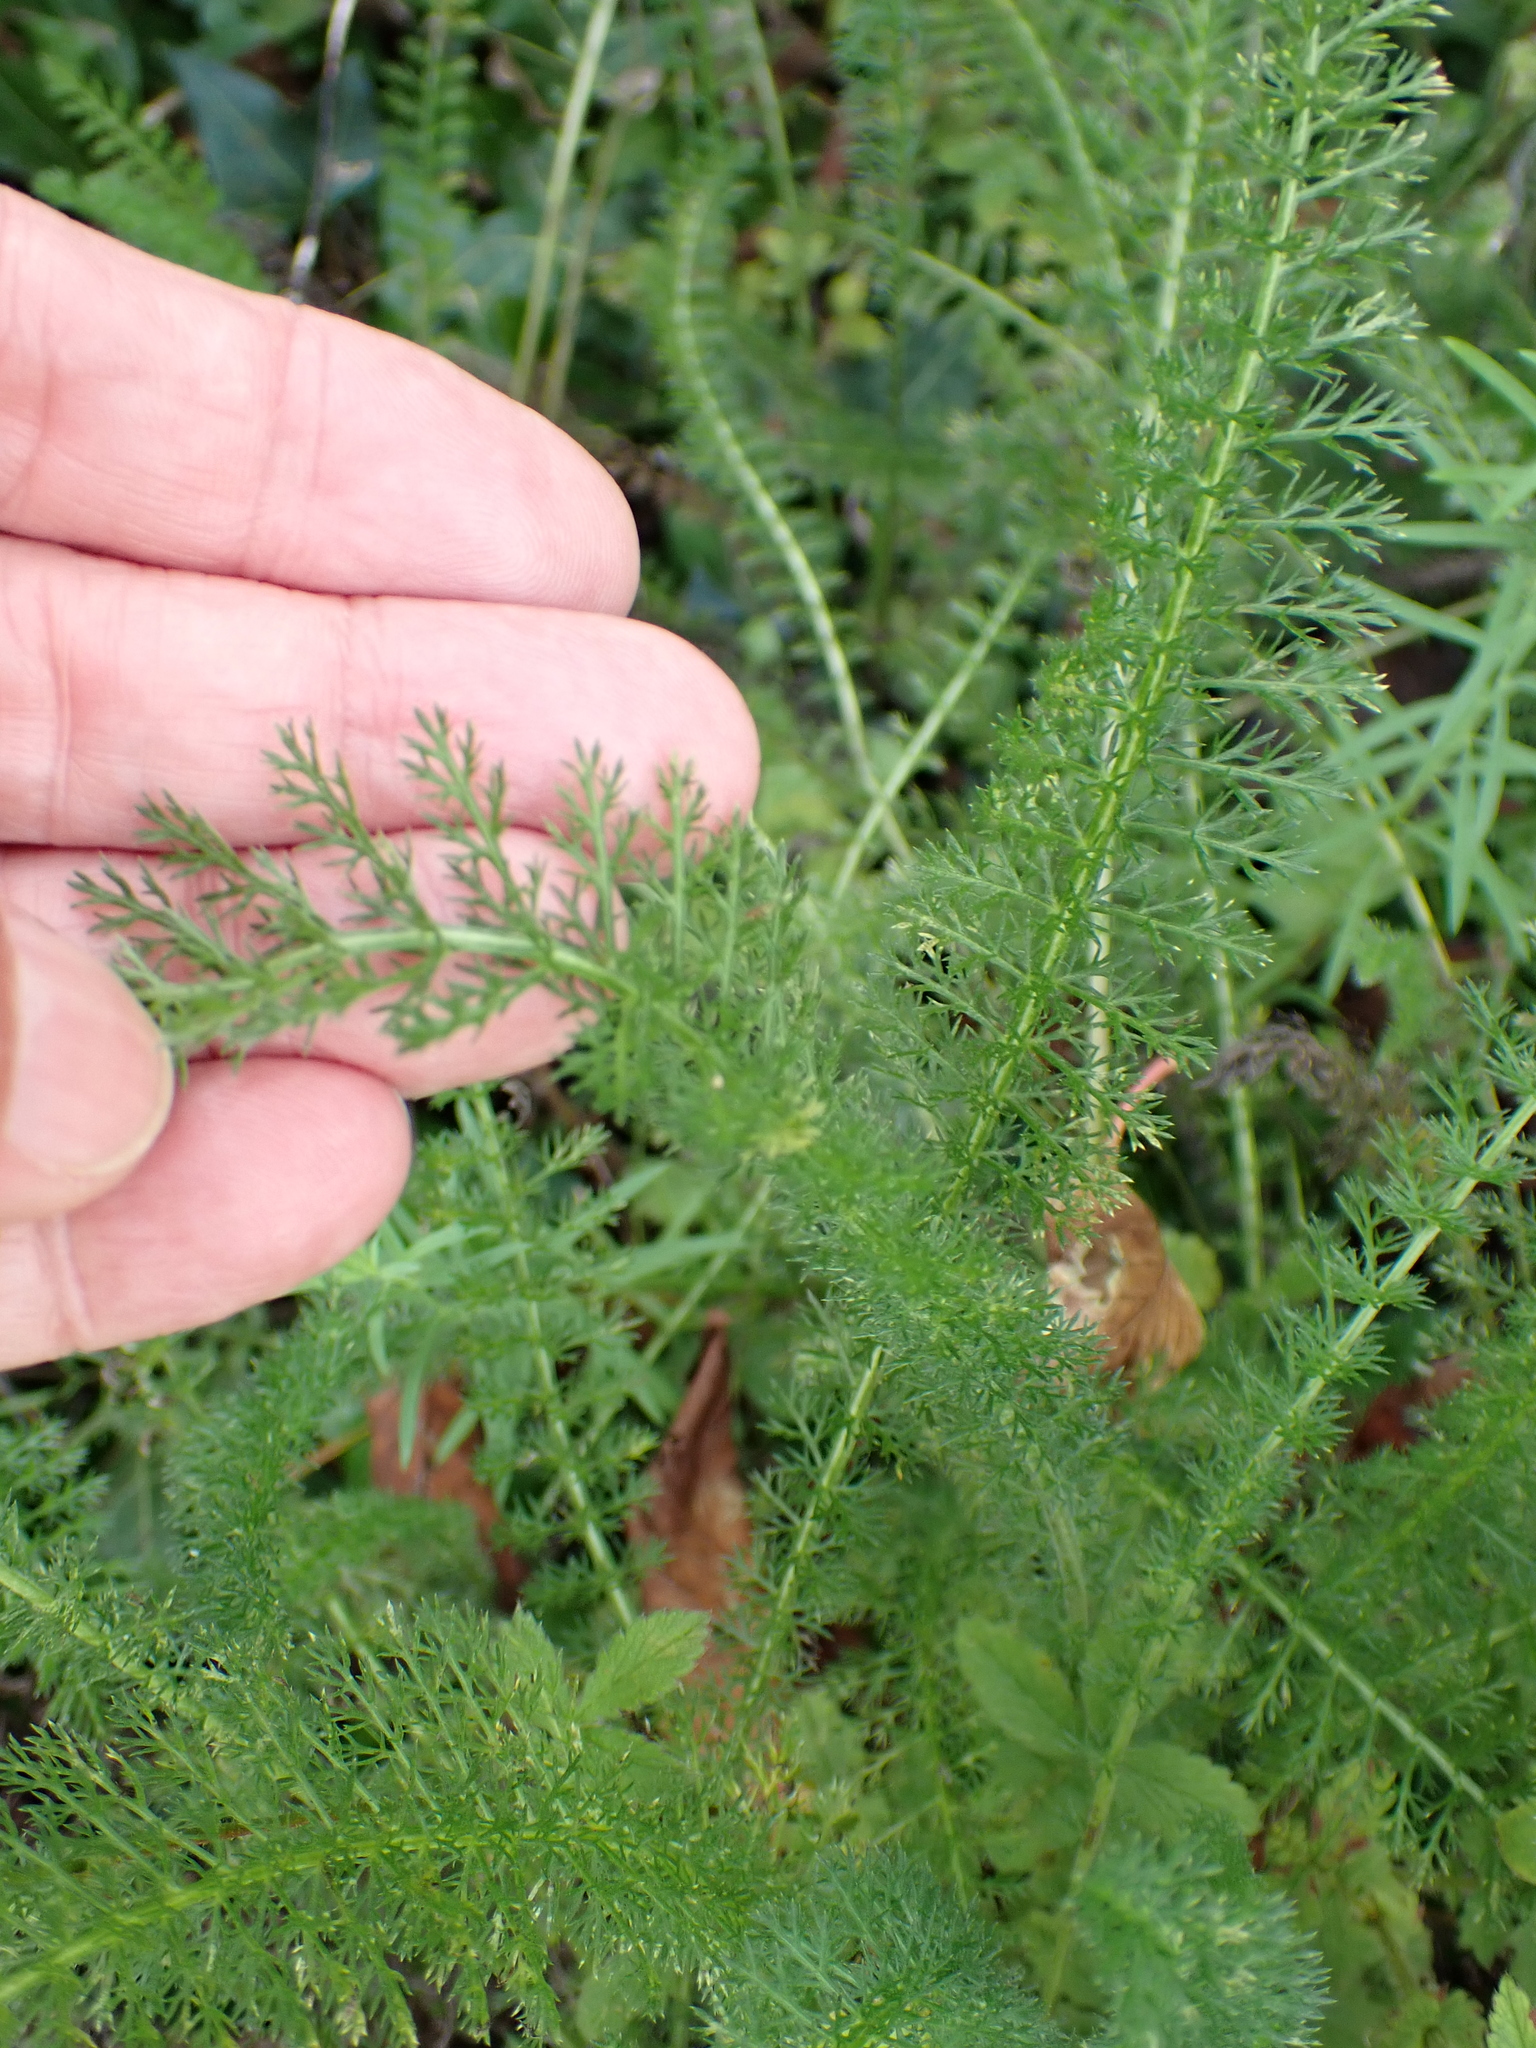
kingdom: Plantae
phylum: Tracheophyta
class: Magnoliopsida
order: Asterales
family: Asteraceae
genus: Achillea
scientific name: Achillea millefolium
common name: Yarrow
